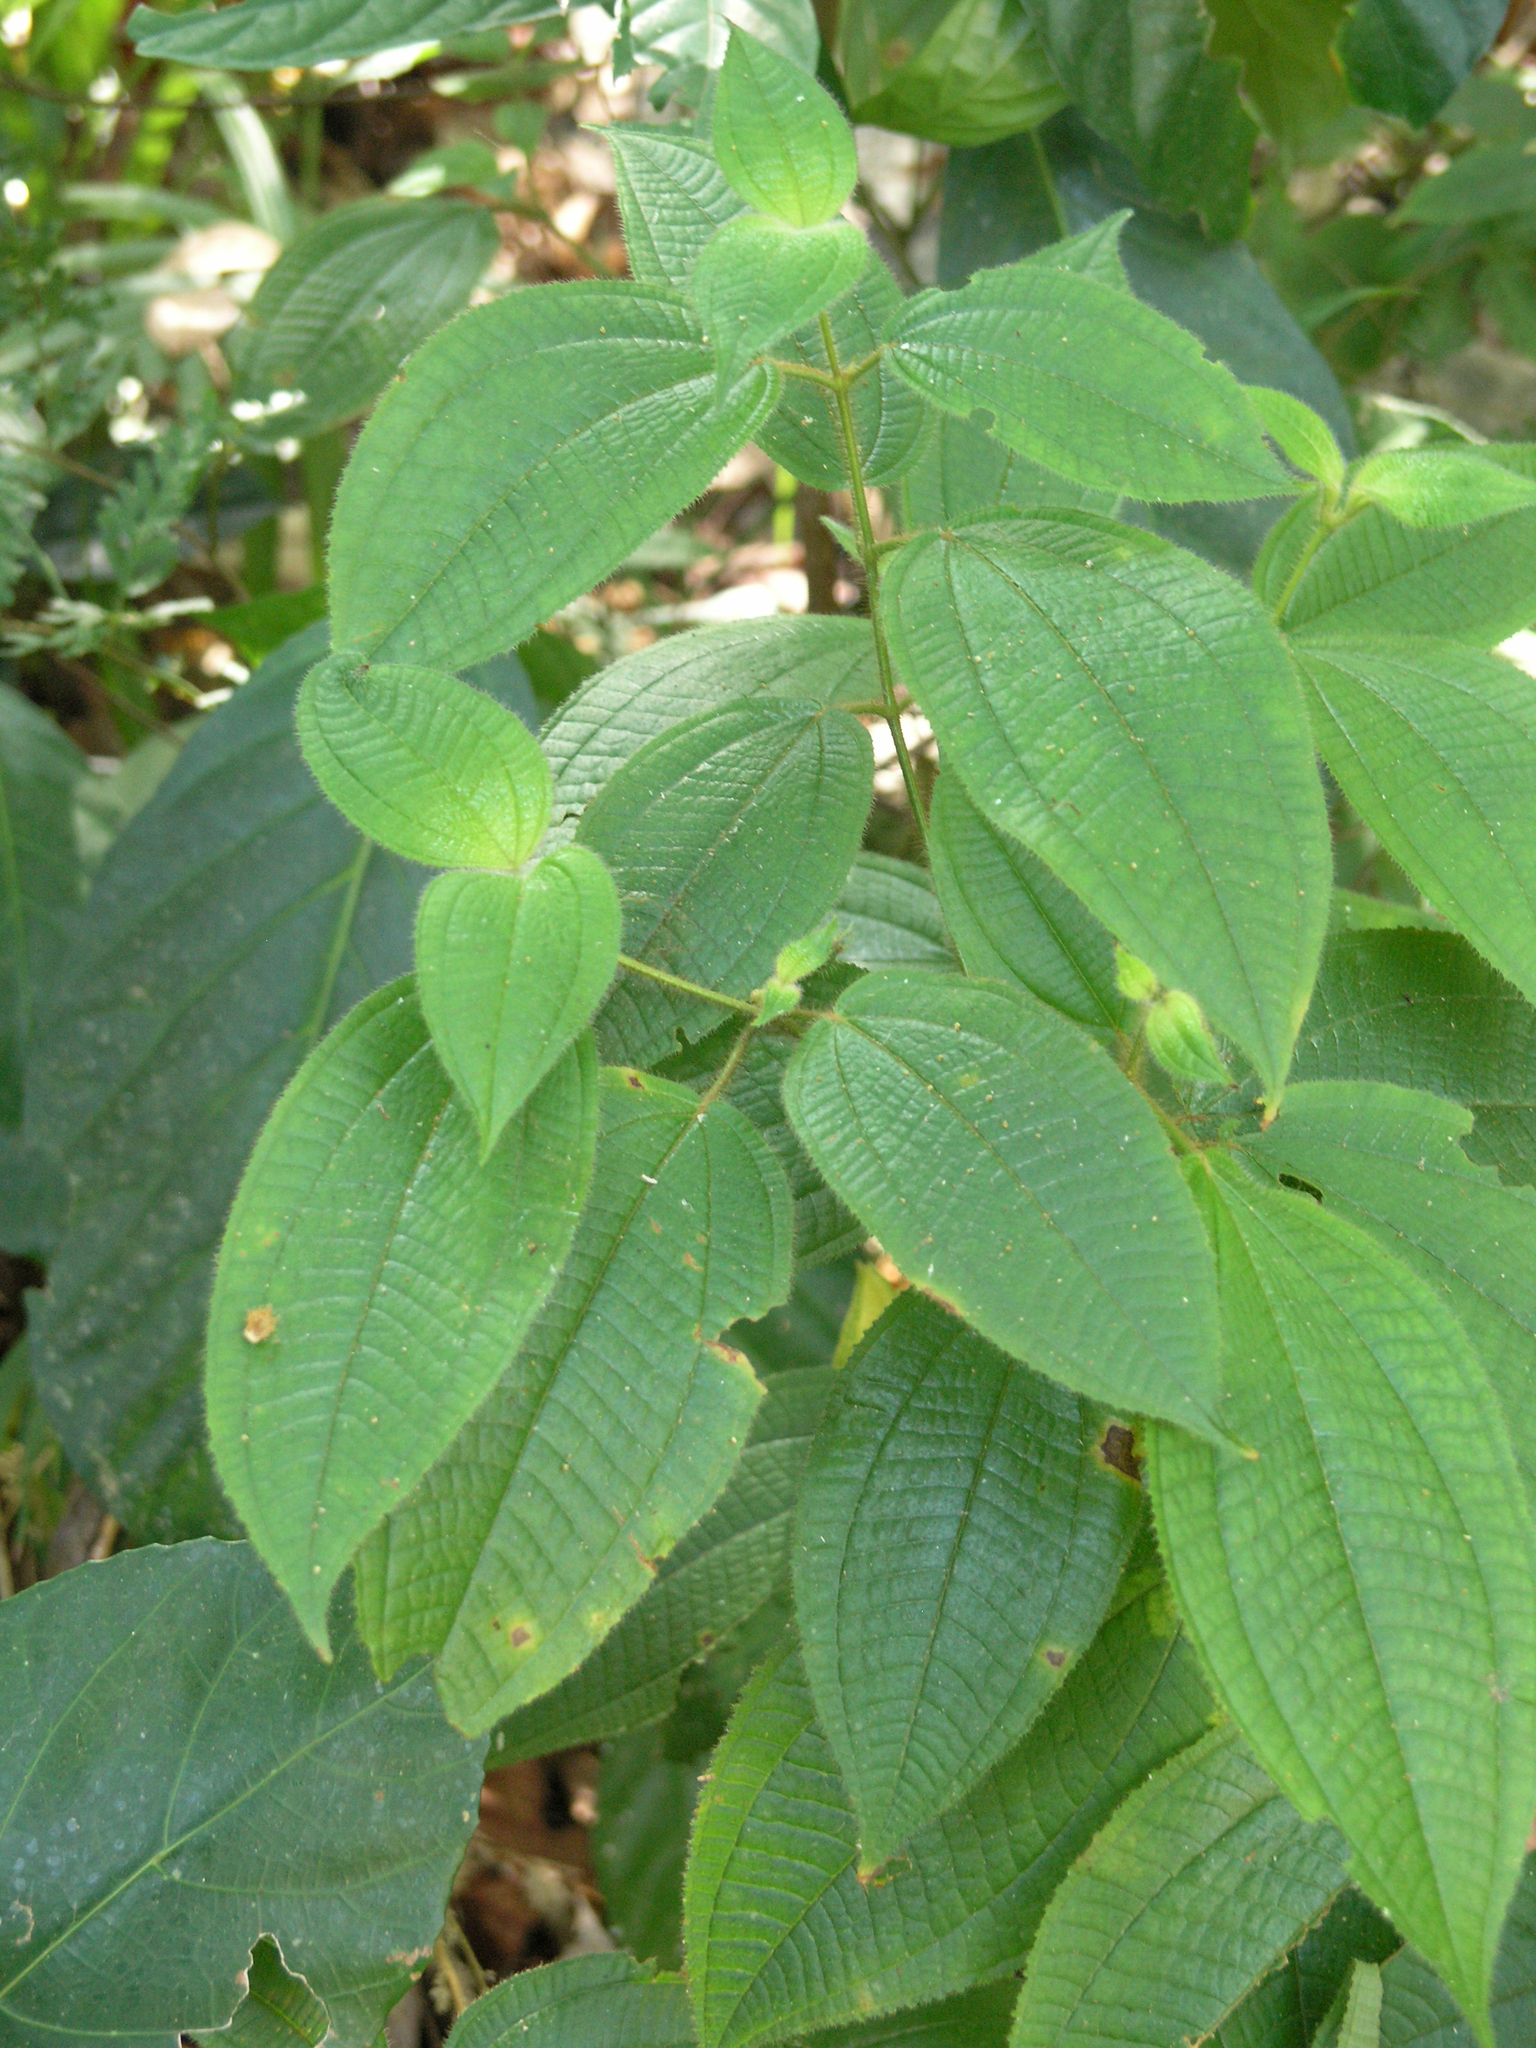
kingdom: Plantae
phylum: Tracheophyta
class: Magnoliopsida
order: Myrtales
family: Melastomataceae
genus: Miconia
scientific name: Miconia crenata
